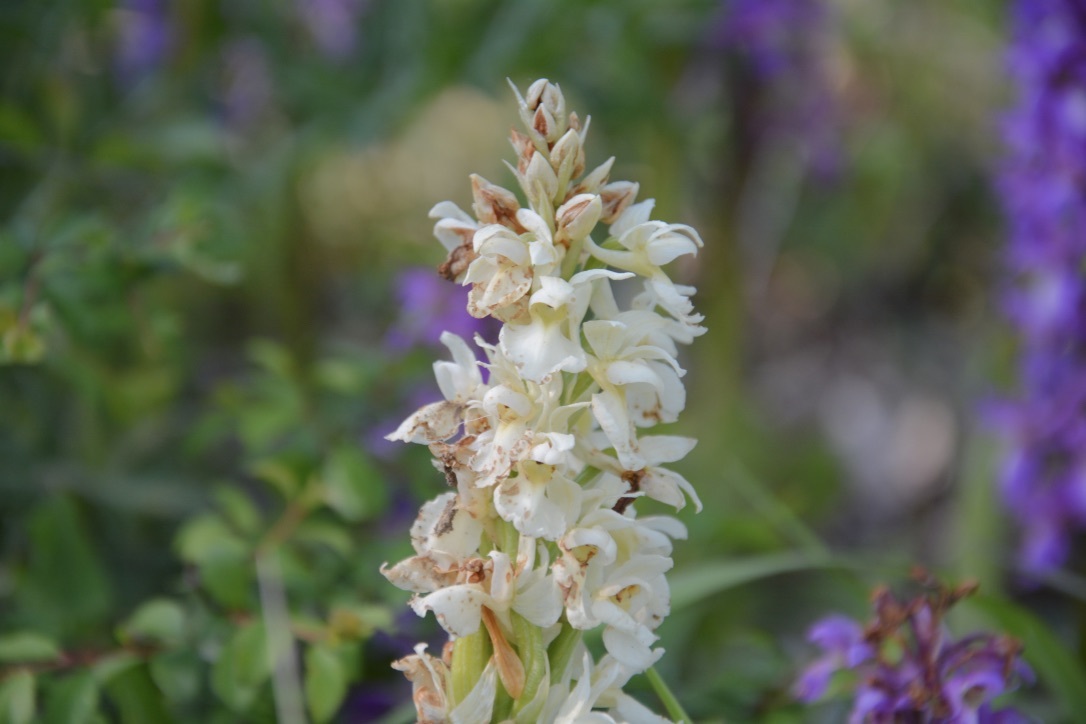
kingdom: Plantae
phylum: Tracheophyta
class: Liliopsida
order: Asparagales
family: Orchidaceae
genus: Orchis
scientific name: Orchis mascula
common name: Early-purple orchid
